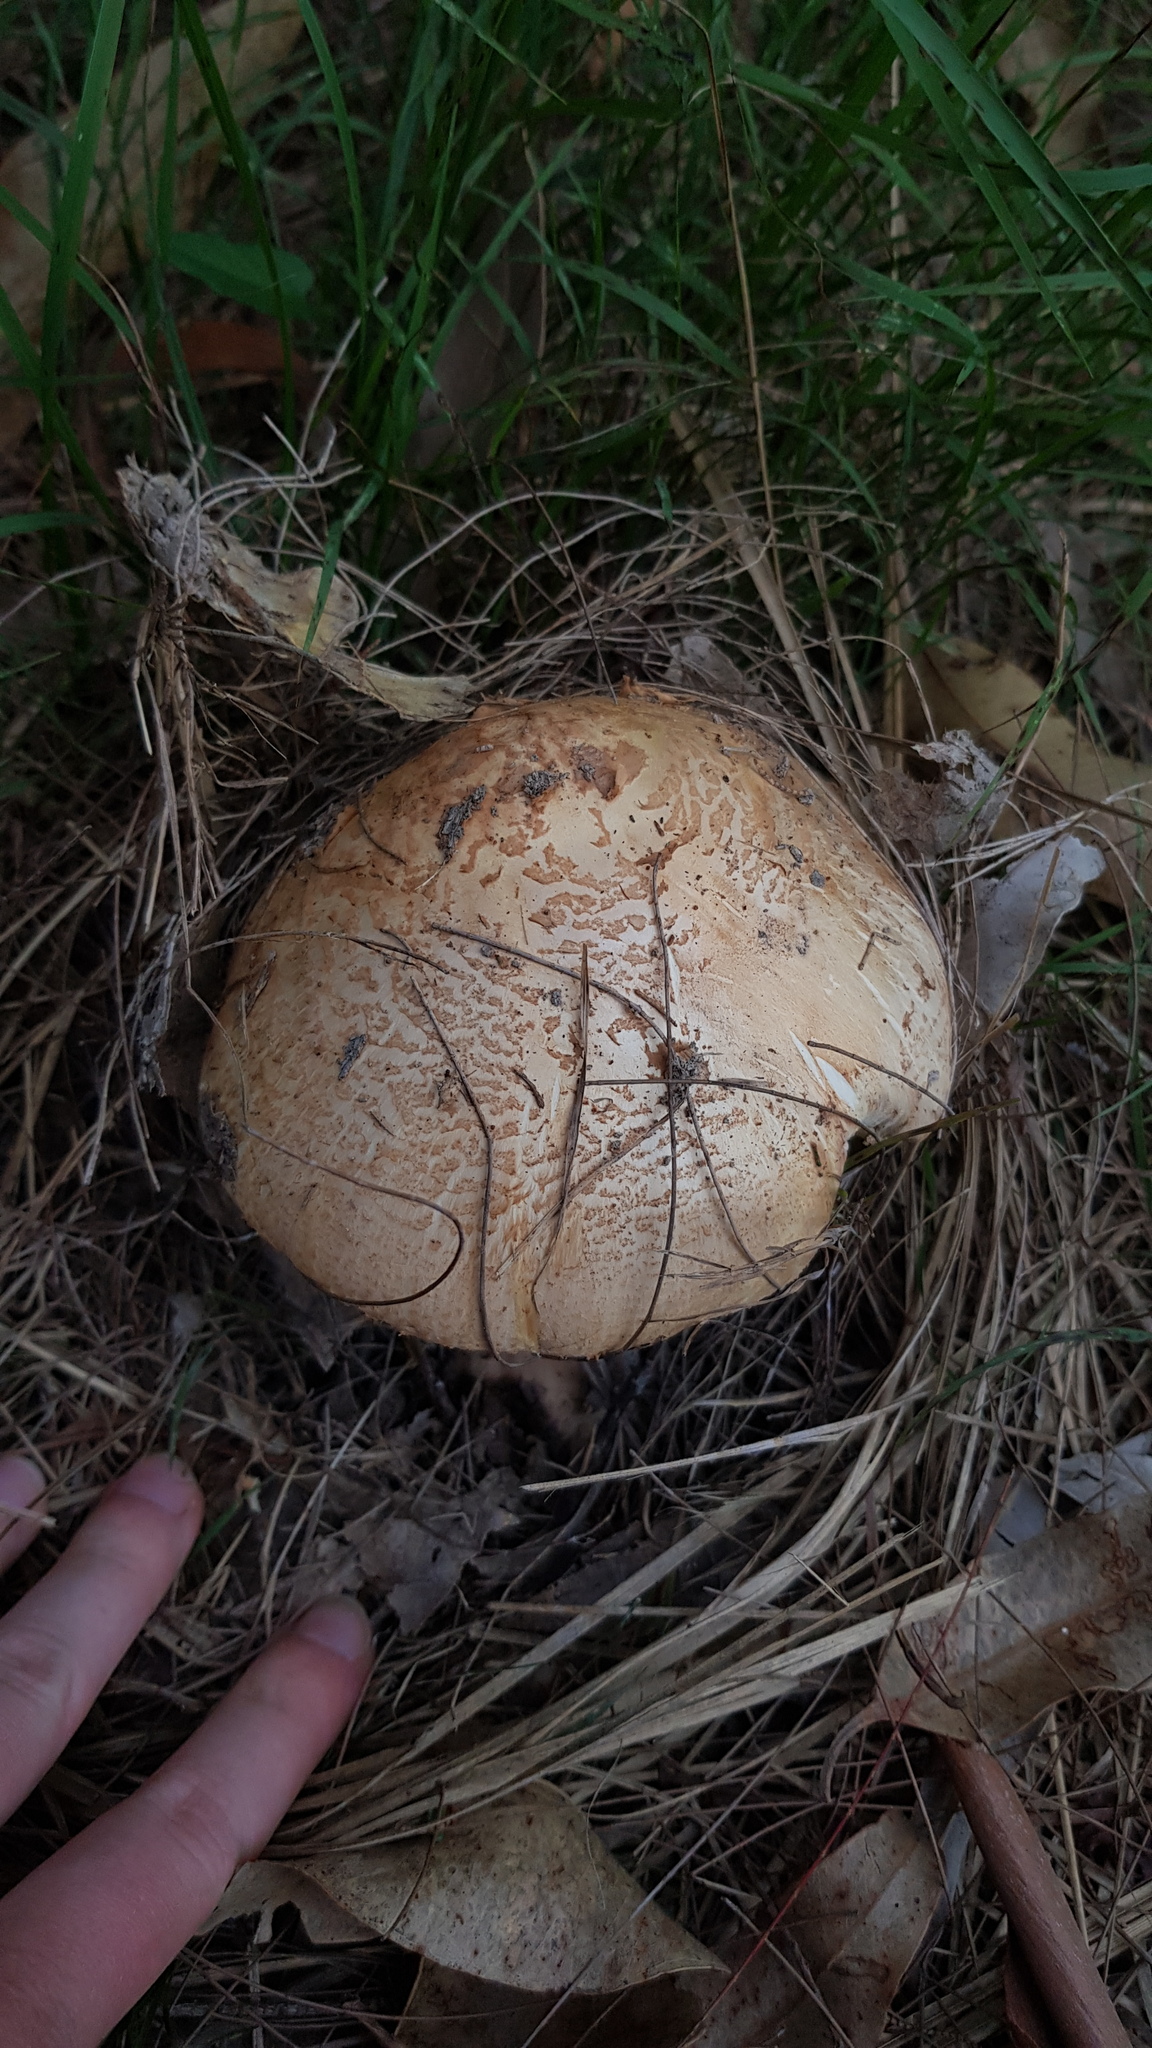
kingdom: Fungi
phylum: Basidiomycota
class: Agaricomycetes
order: Agaricales
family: Amanitaceae
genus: Amanita
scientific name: Amanita ochrophylla
